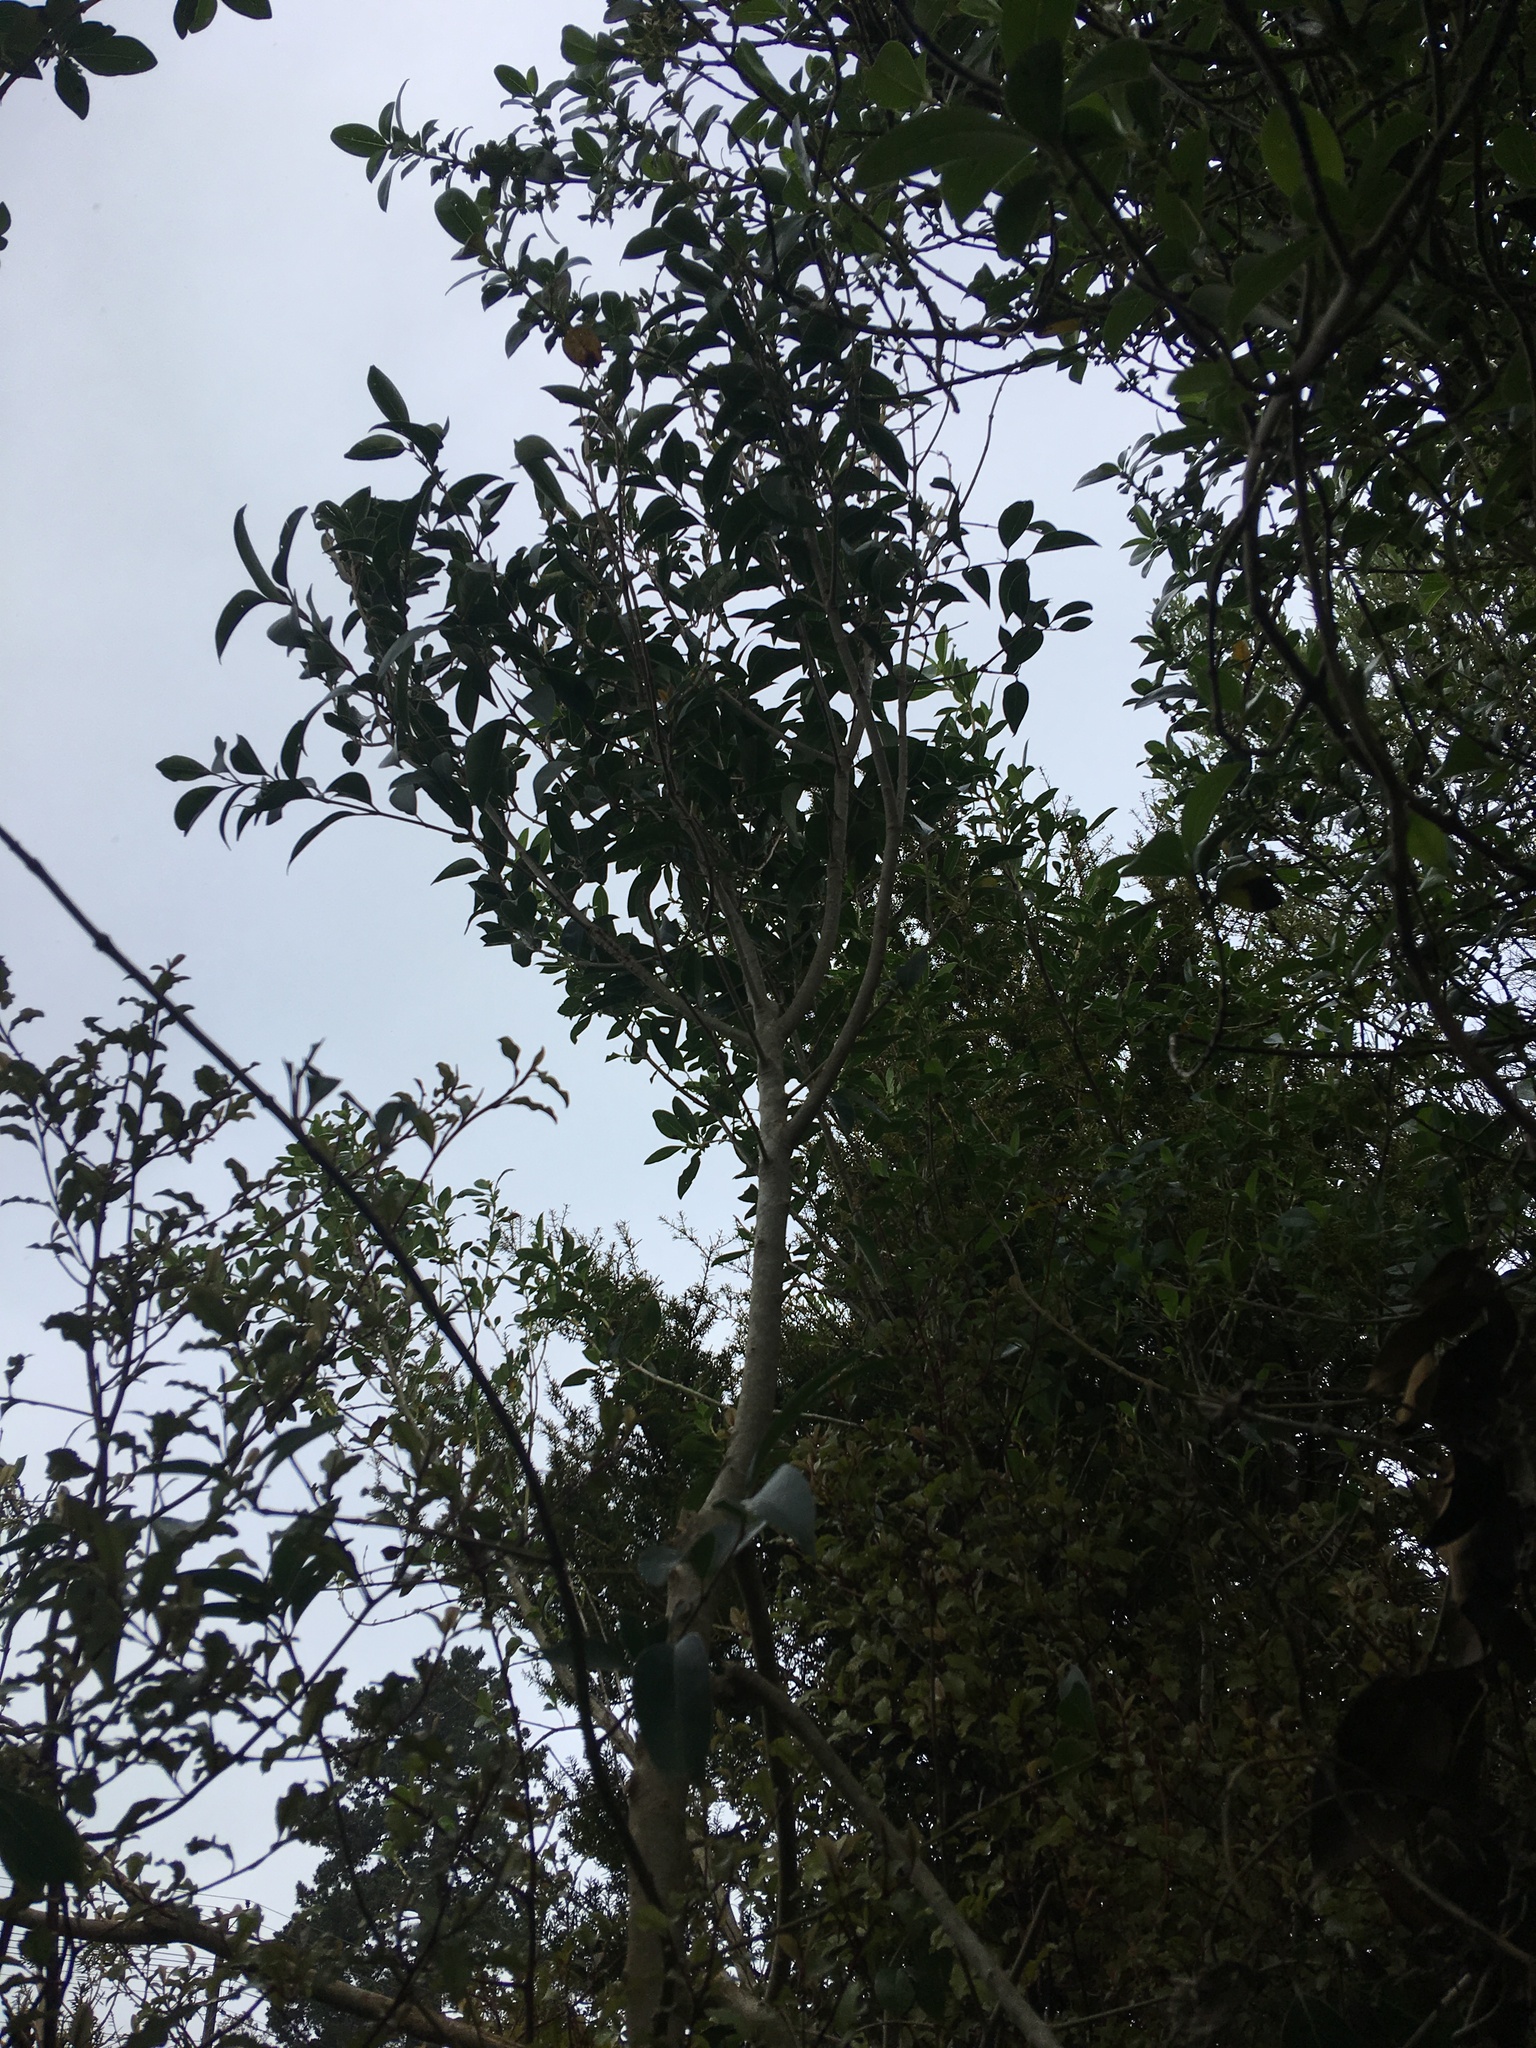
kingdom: Plantae
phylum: Tracheophyta
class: Magnoliopsida
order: Lamiales
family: Oleaceae
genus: Ligustrum
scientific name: Ligustrum lucidum
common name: Glossy privet
